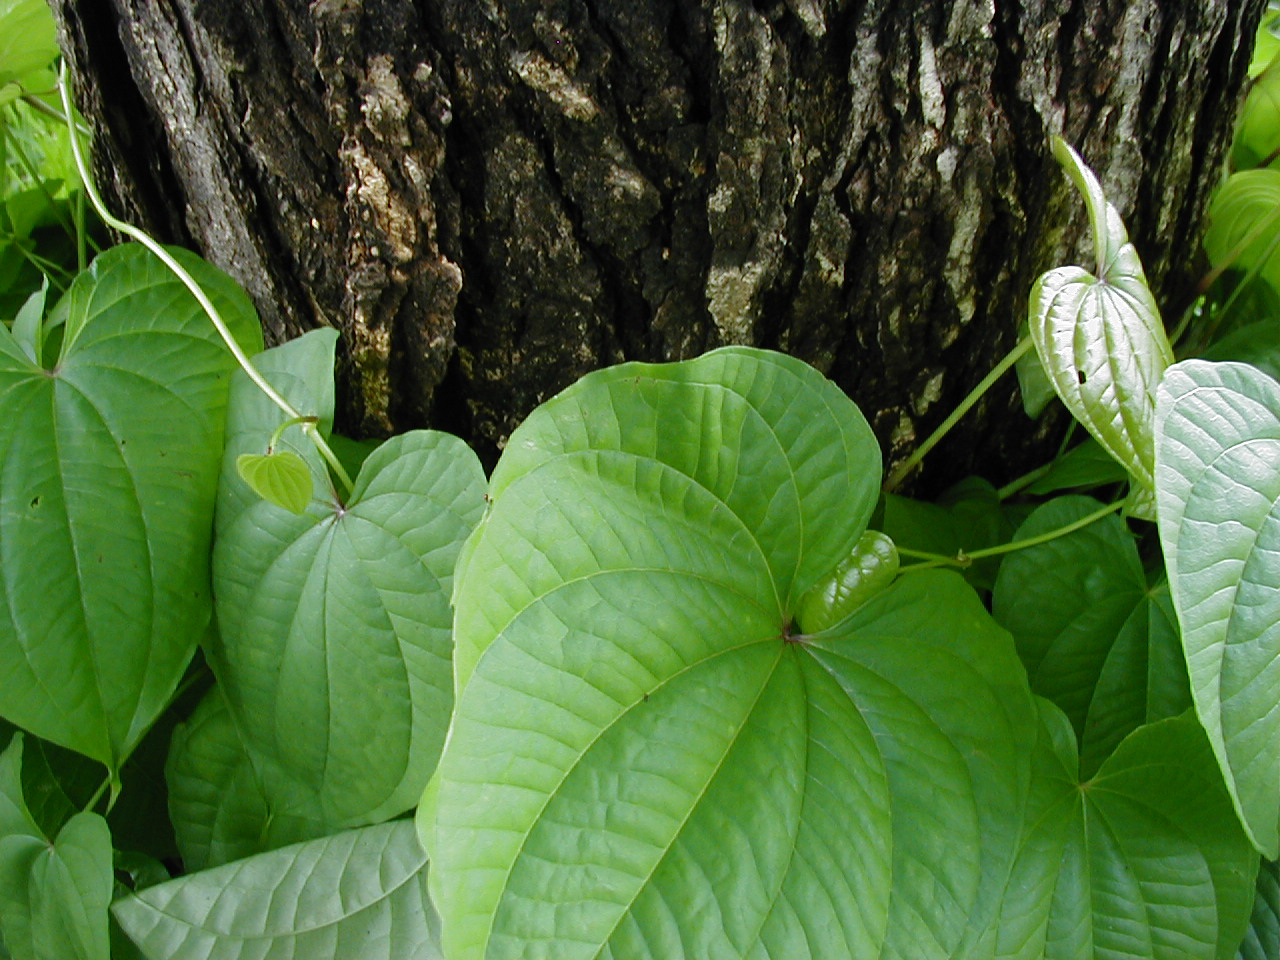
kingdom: Plantae
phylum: Tracheophyta
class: Liliopsida
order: Dioscoreales
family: Dioscoreaceae
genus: Dioscorea
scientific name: Dioscorea bulbifera
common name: Air yam
